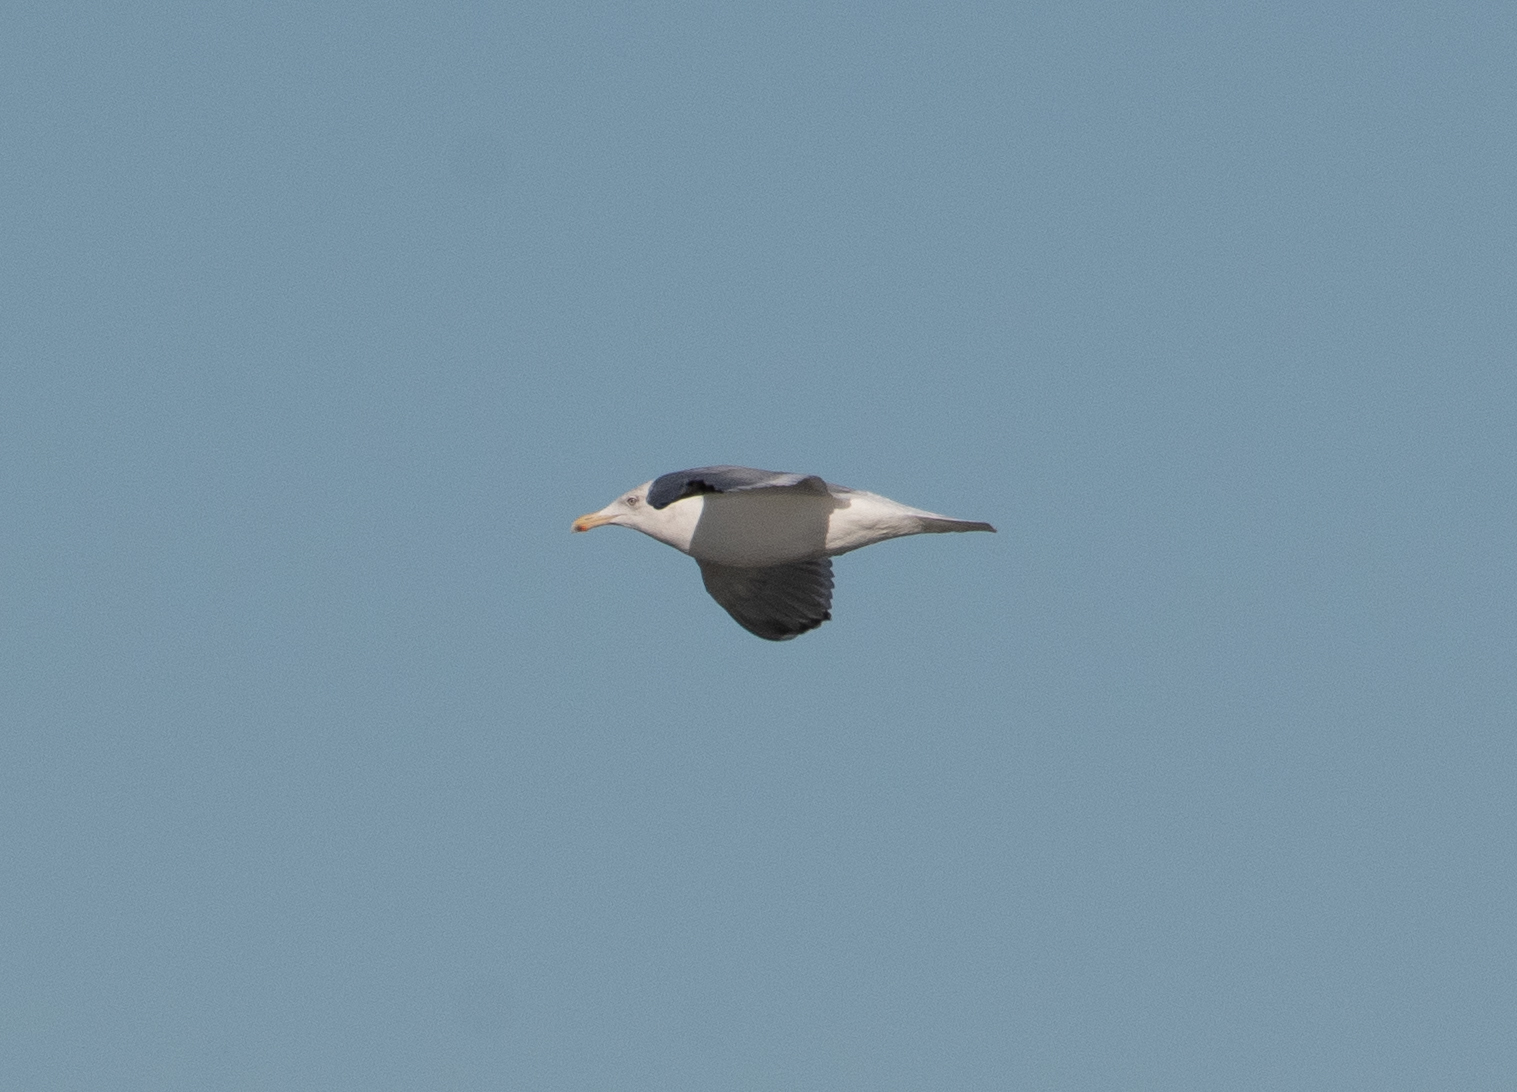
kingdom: Animalia
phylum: Chordata
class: Aves
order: Charadriiformes
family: Laridae
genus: Larus
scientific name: Larus argentatus
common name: Herring gull
